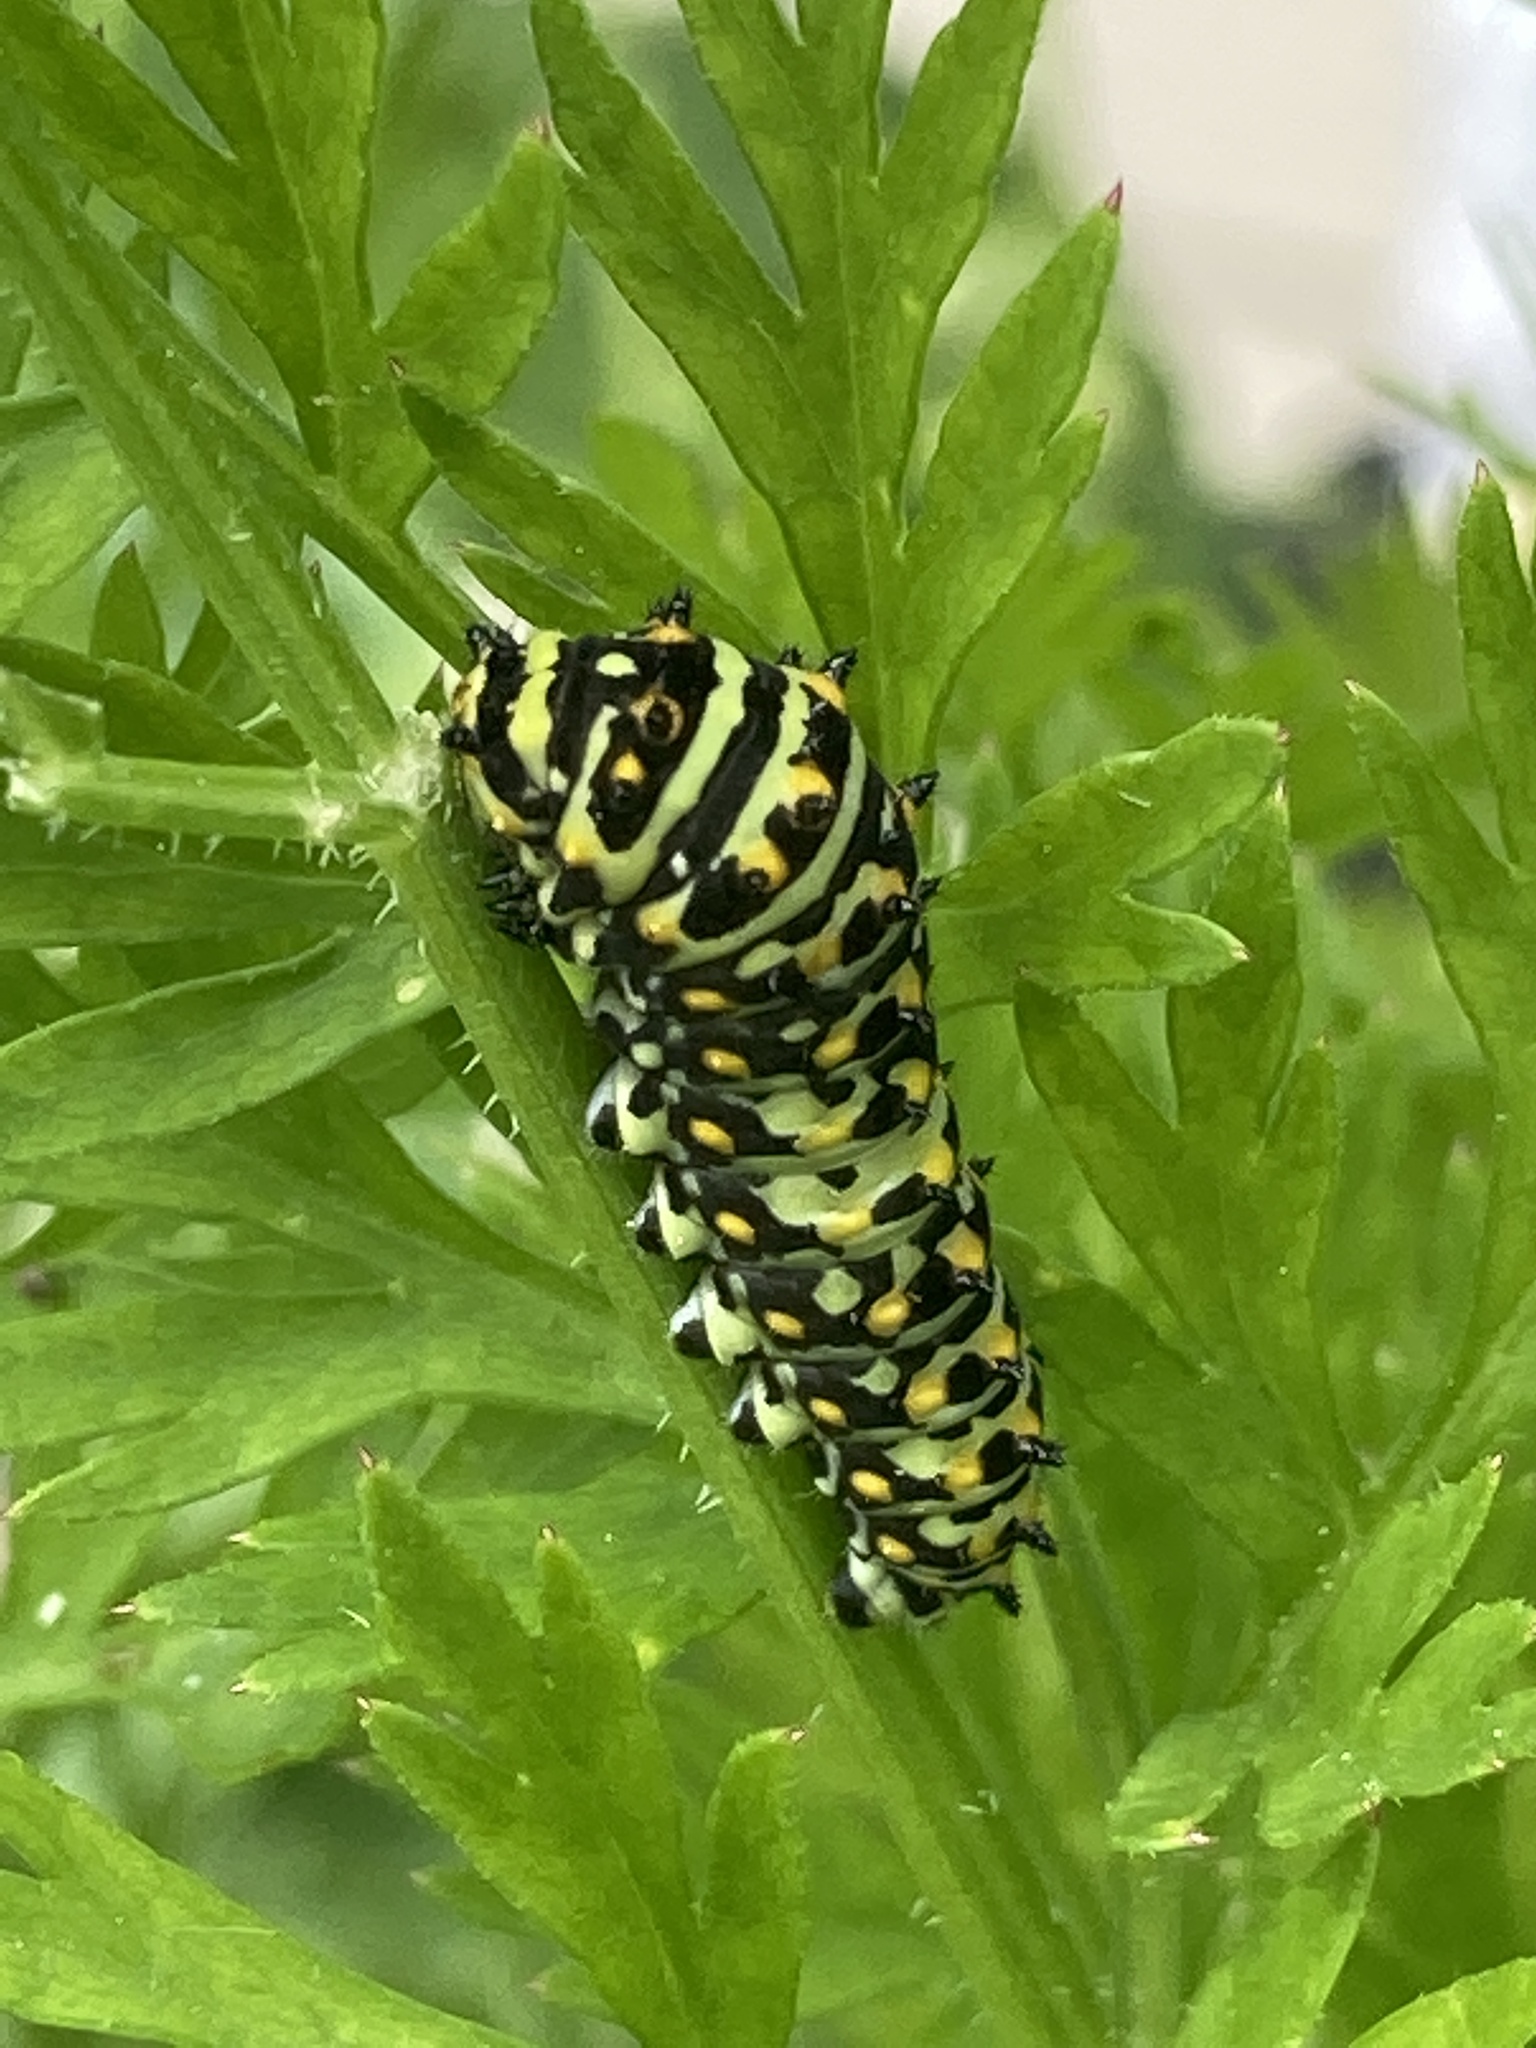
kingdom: Animalia
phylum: Arthropoda
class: Insecta
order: Lepidoptera
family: Papilionidae
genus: Papilio
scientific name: Papilio zelicaon
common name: Anise swallowtail
